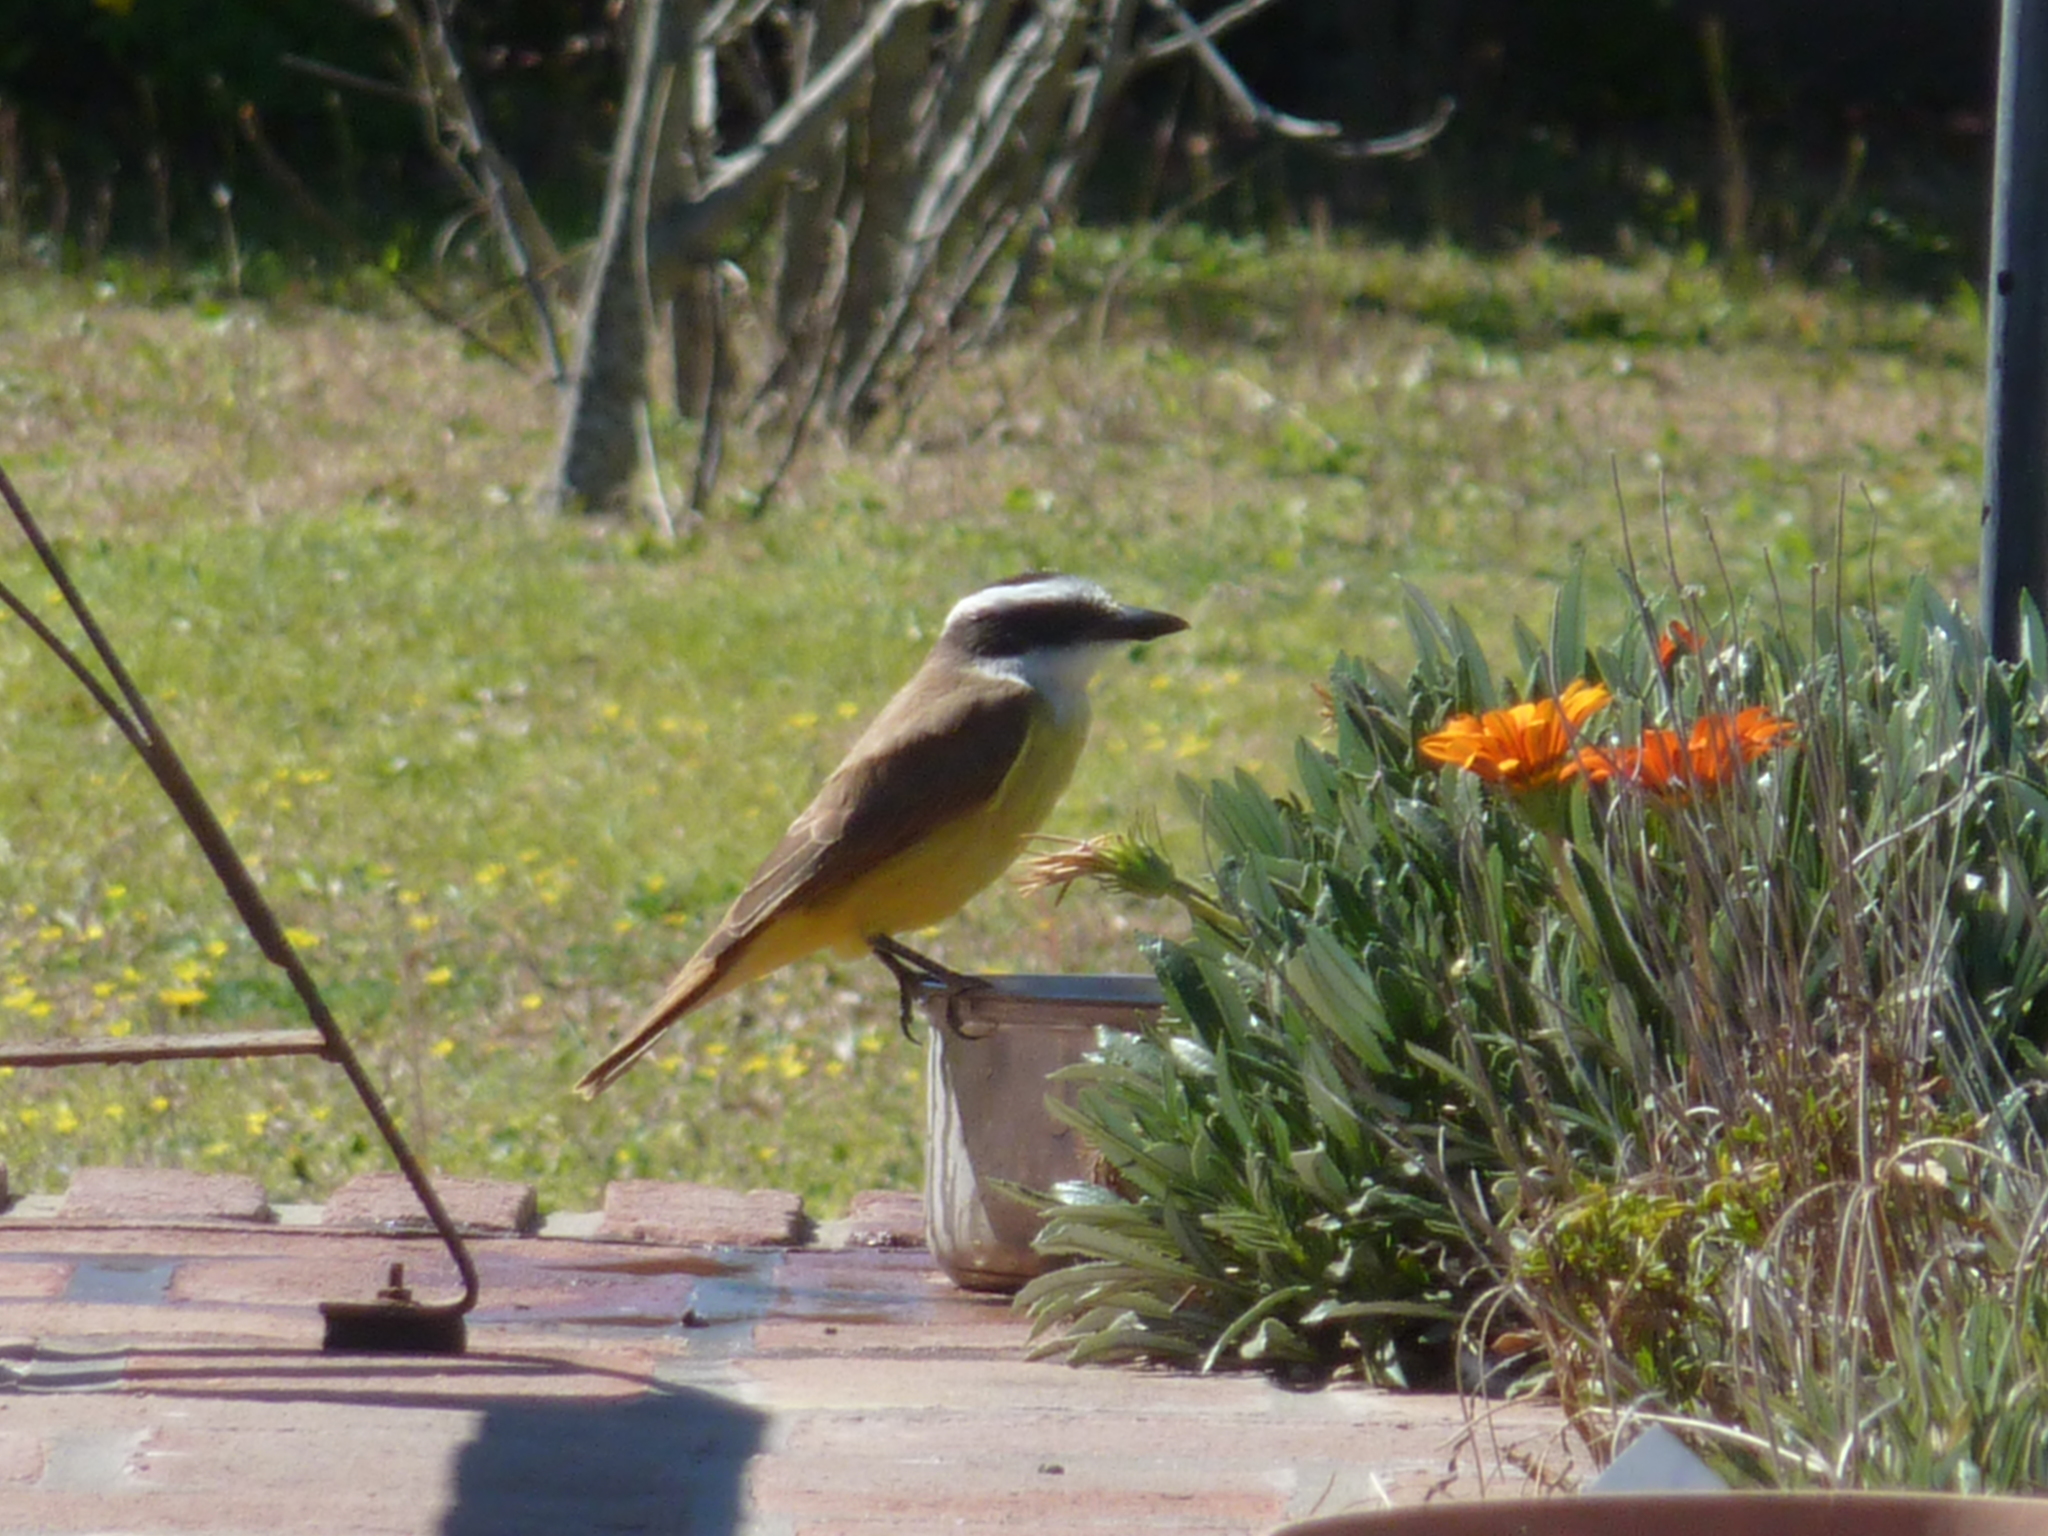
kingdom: Animalia
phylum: Chordata
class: Aves
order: Passeriformes
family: Tyrannidae
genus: Pitangus
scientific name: Pitangus sulphuratus
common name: Great kiskadee
